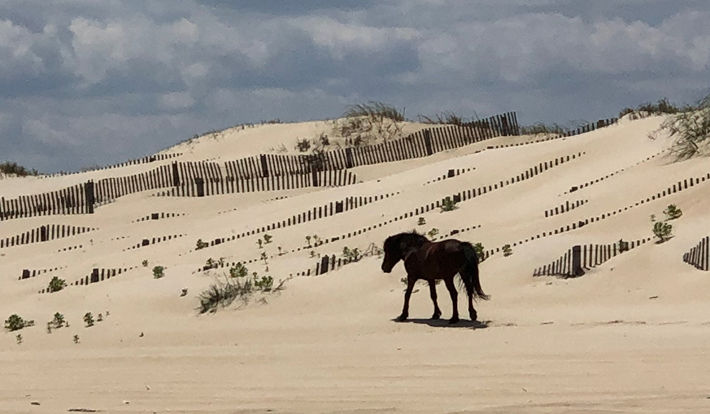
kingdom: Animalia
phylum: Chordata
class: Mammalia
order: Perissodactyla
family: Equidae
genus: Equus
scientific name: Equus caballus
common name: Horse
